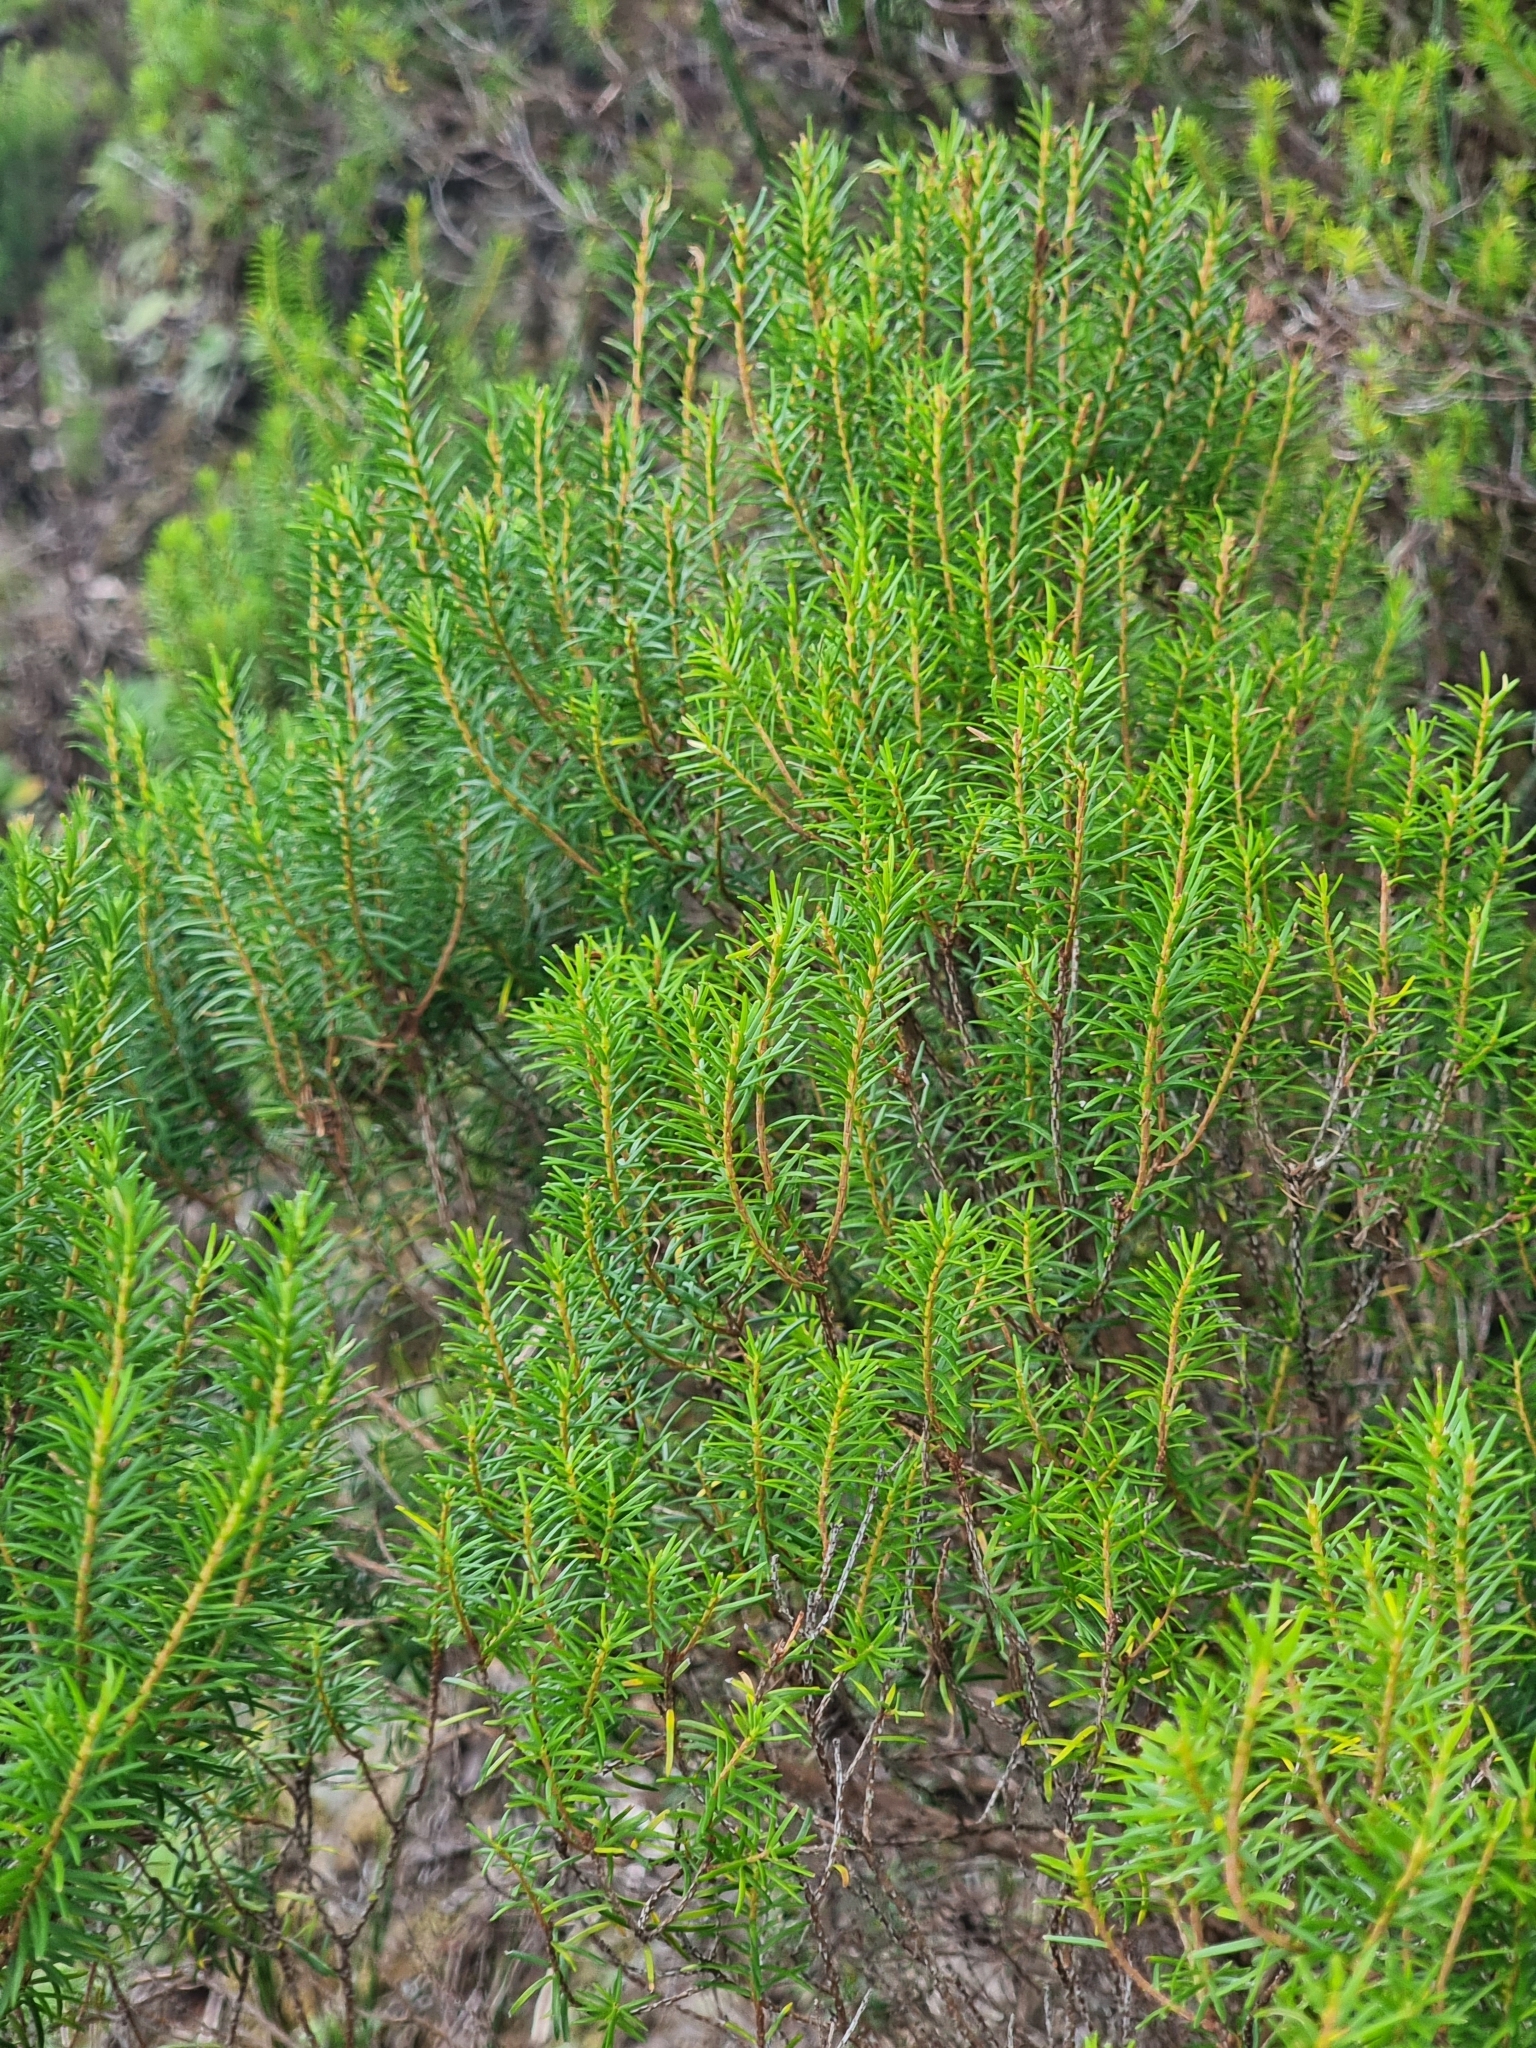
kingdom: Plantae
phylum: Tracheophyta
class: Magnoliopsida
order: Ericales
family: Ericaceae
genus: Erica
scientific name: Erica platycodon
